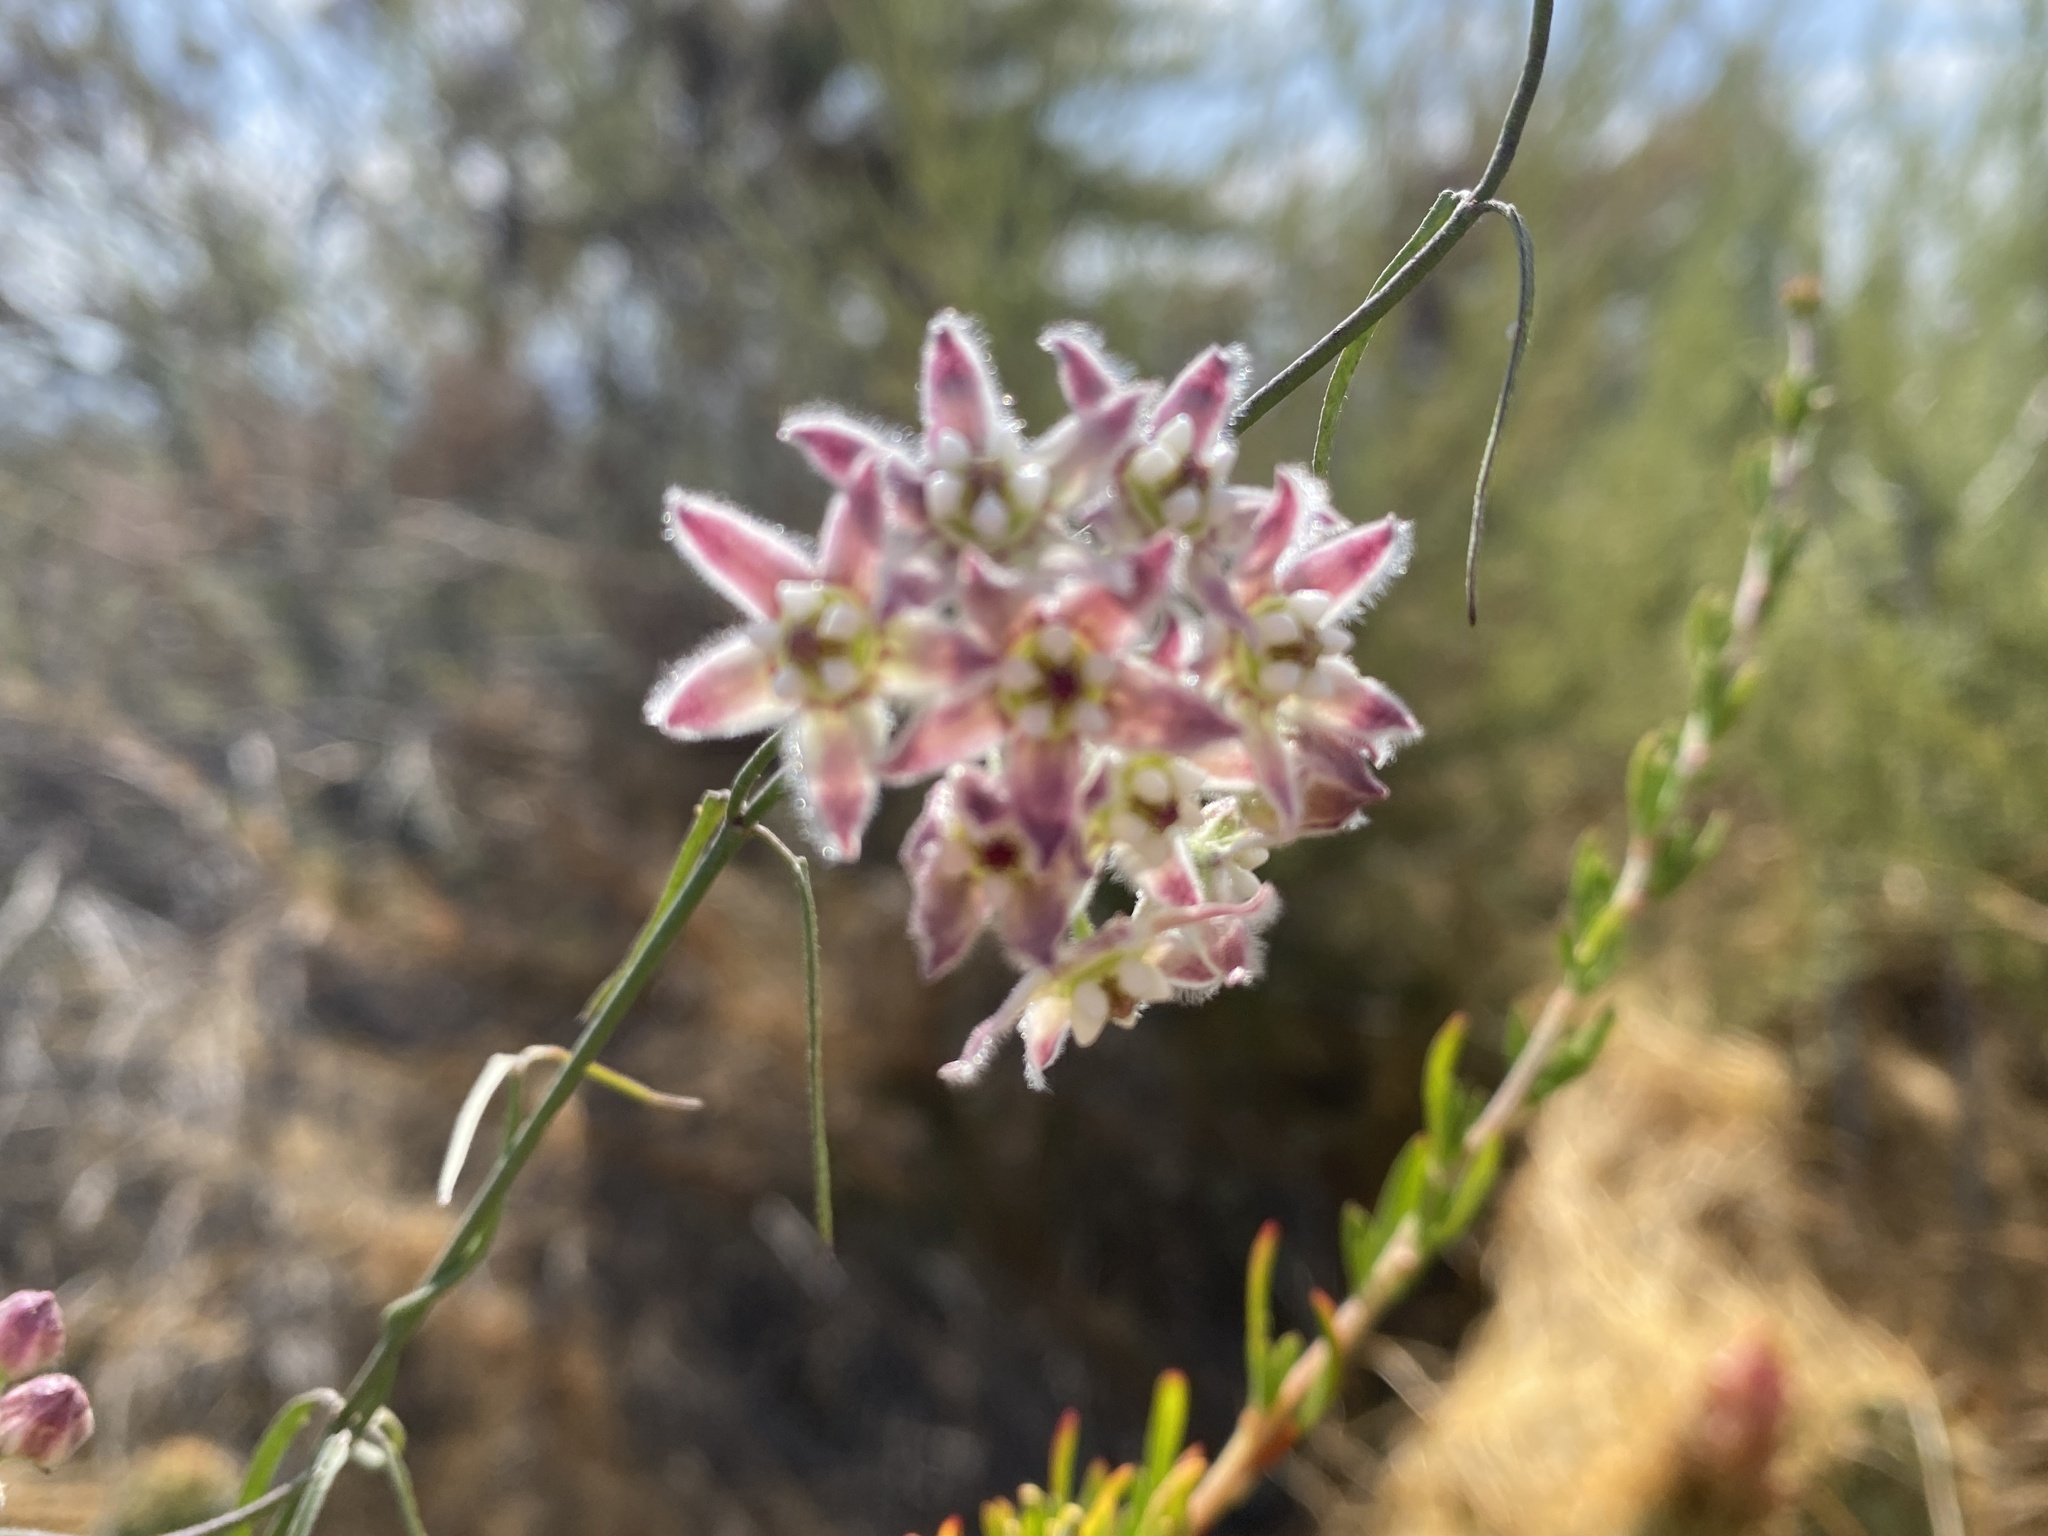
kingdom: Plantae
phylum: Tracheophyta
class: Magnoliopsida
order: Gentianales
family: Apocynaceae
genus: Funastrum
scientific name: Funastrum heterophyllum
